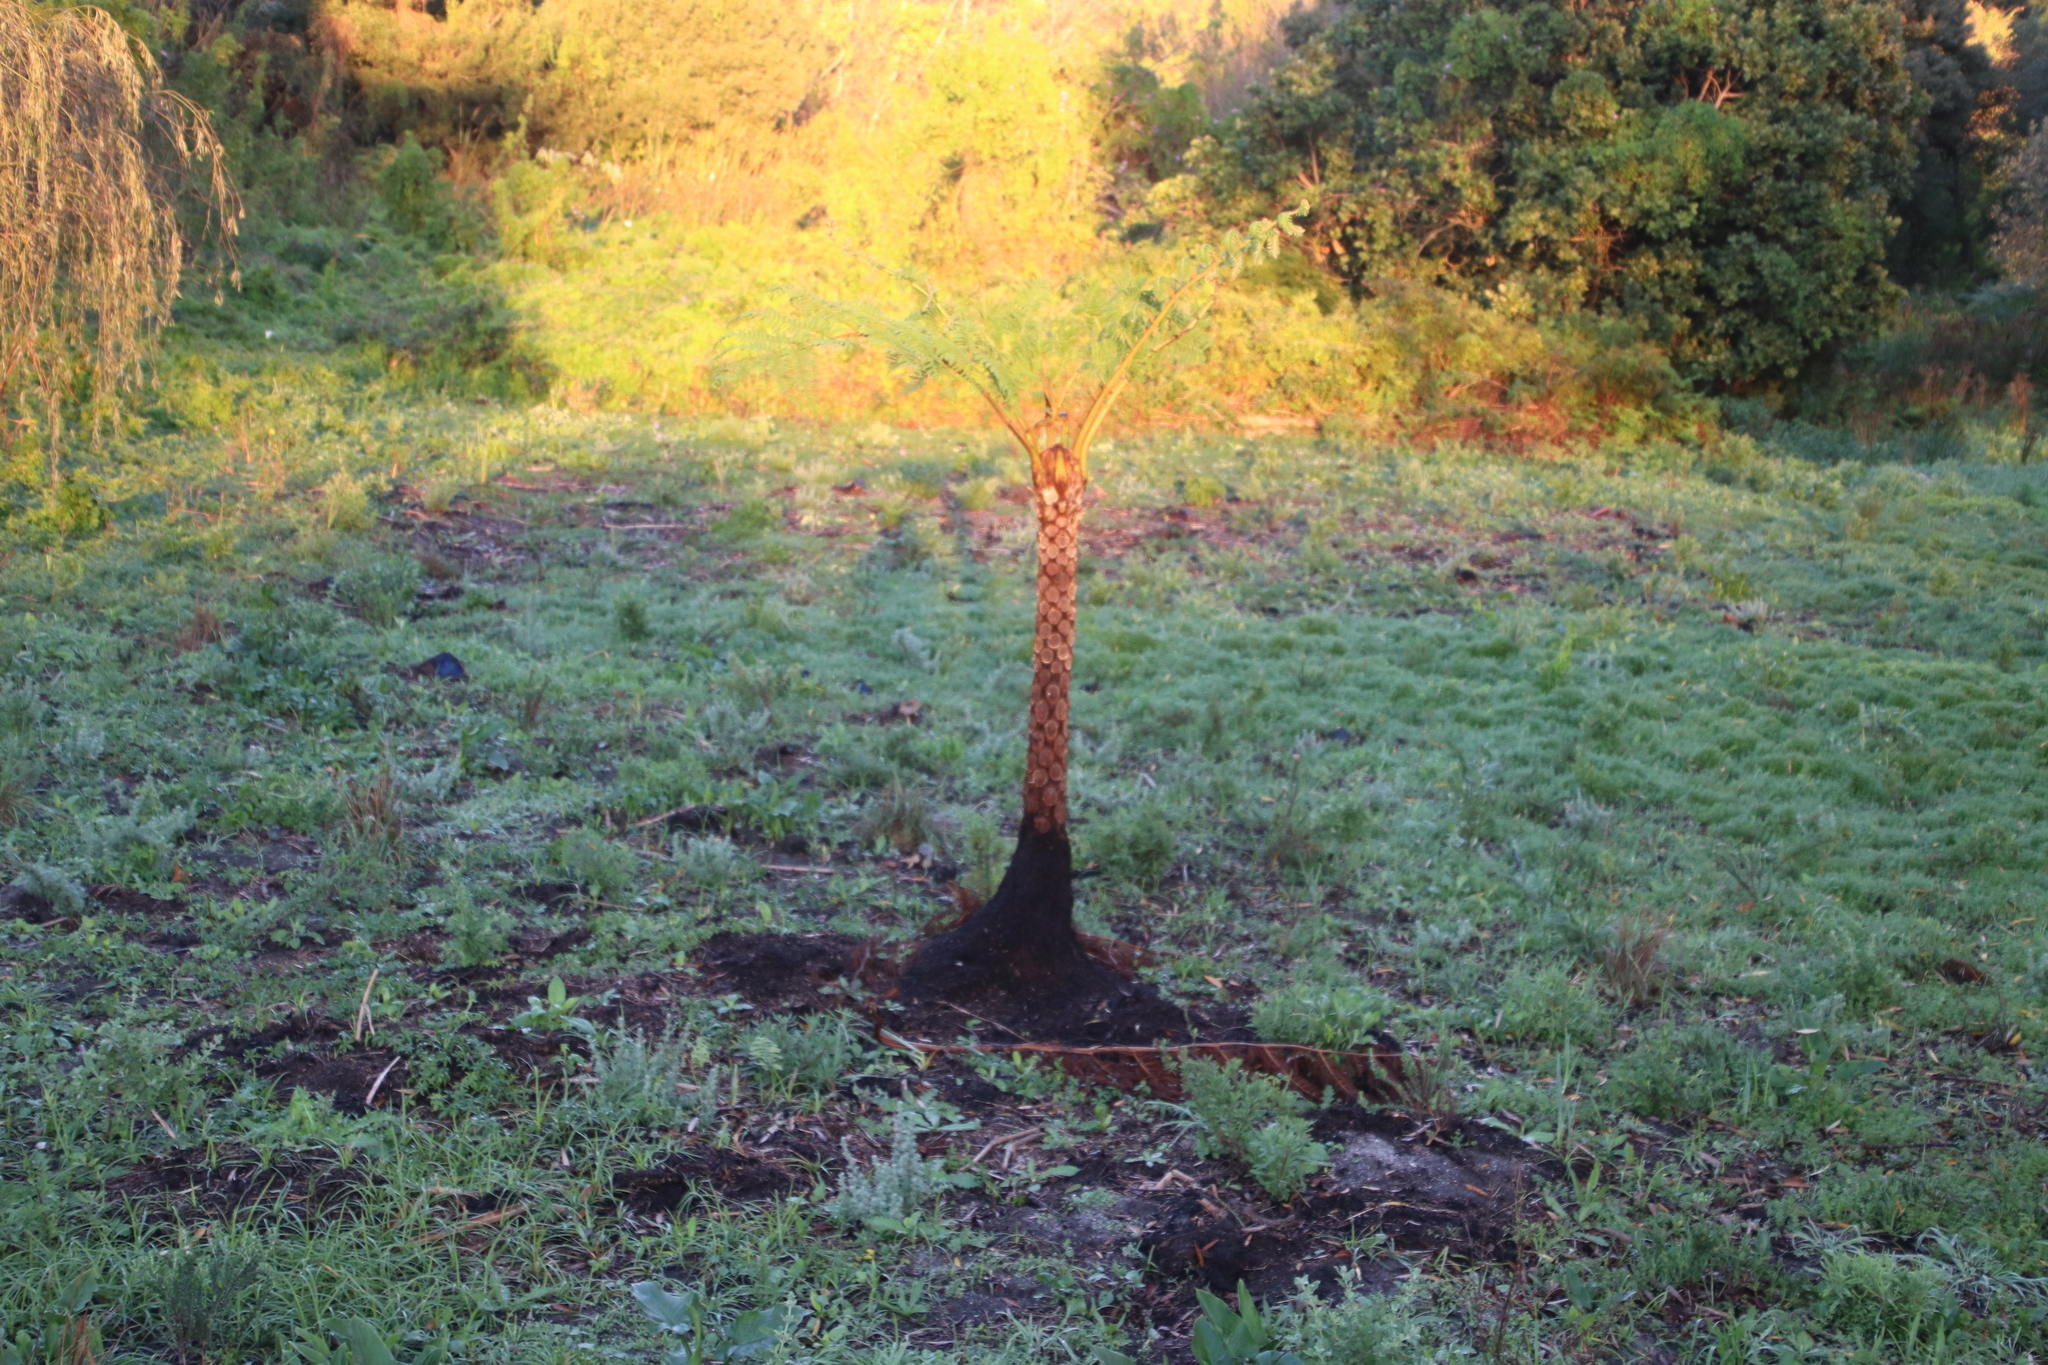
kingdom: Plantae
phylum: Tracheophyta
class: Polypodiopsida
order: Cyatheales
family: Cyatheaceae
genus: Sphaeropteris
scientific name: Sphaeropteris cooperi
